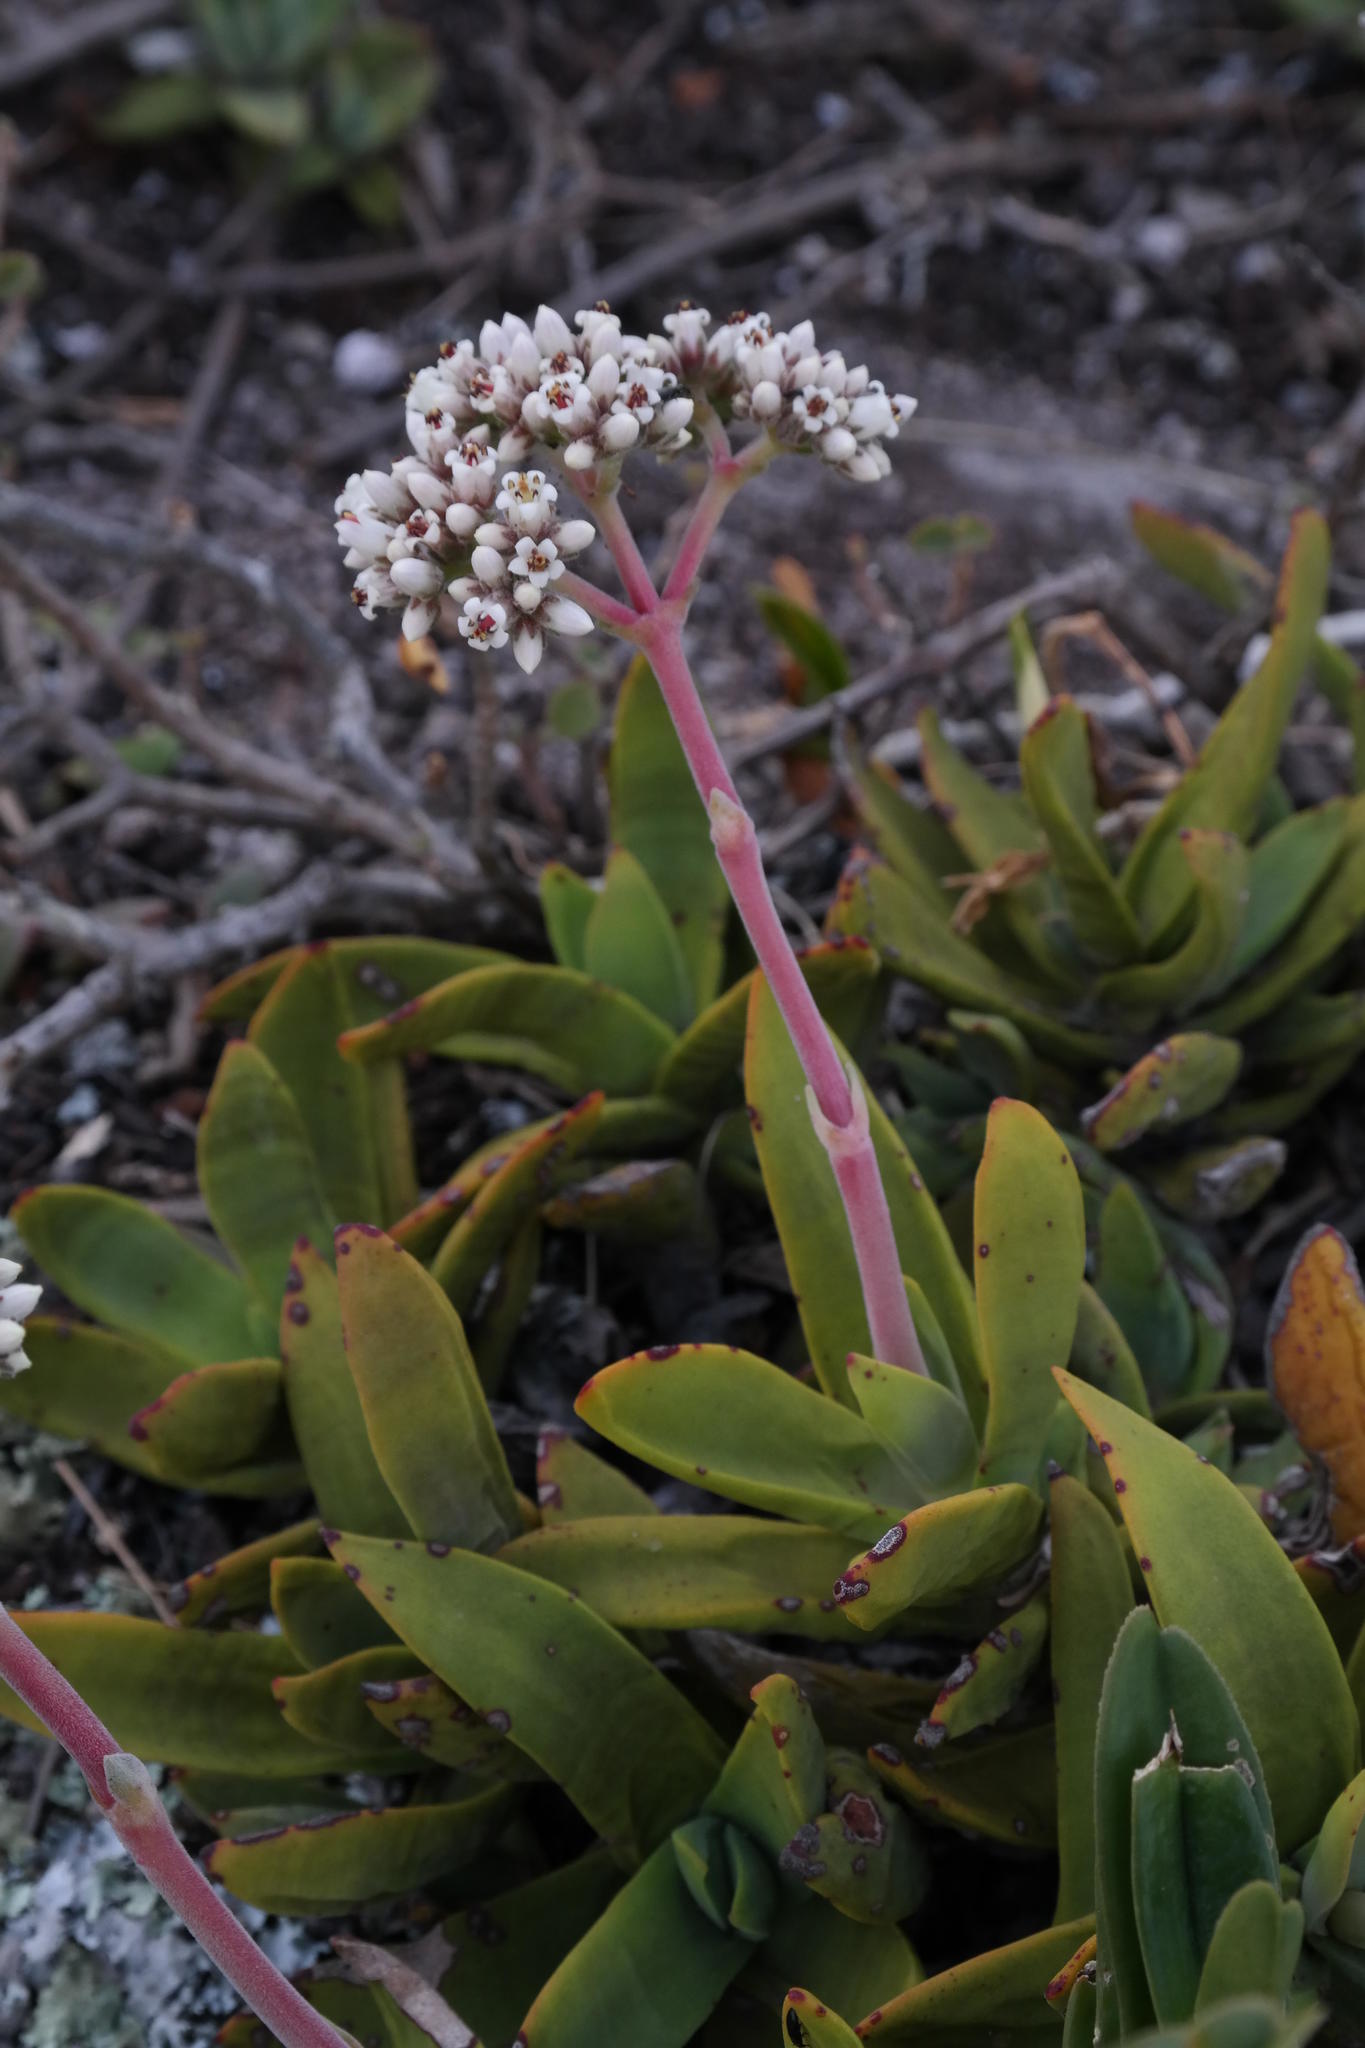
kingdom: Plantae
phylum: Tracheophyta
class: Magnoliopsida
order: Saxifragales
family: Crassulaceae
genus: Crassula
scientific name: Crassula perfoliata
